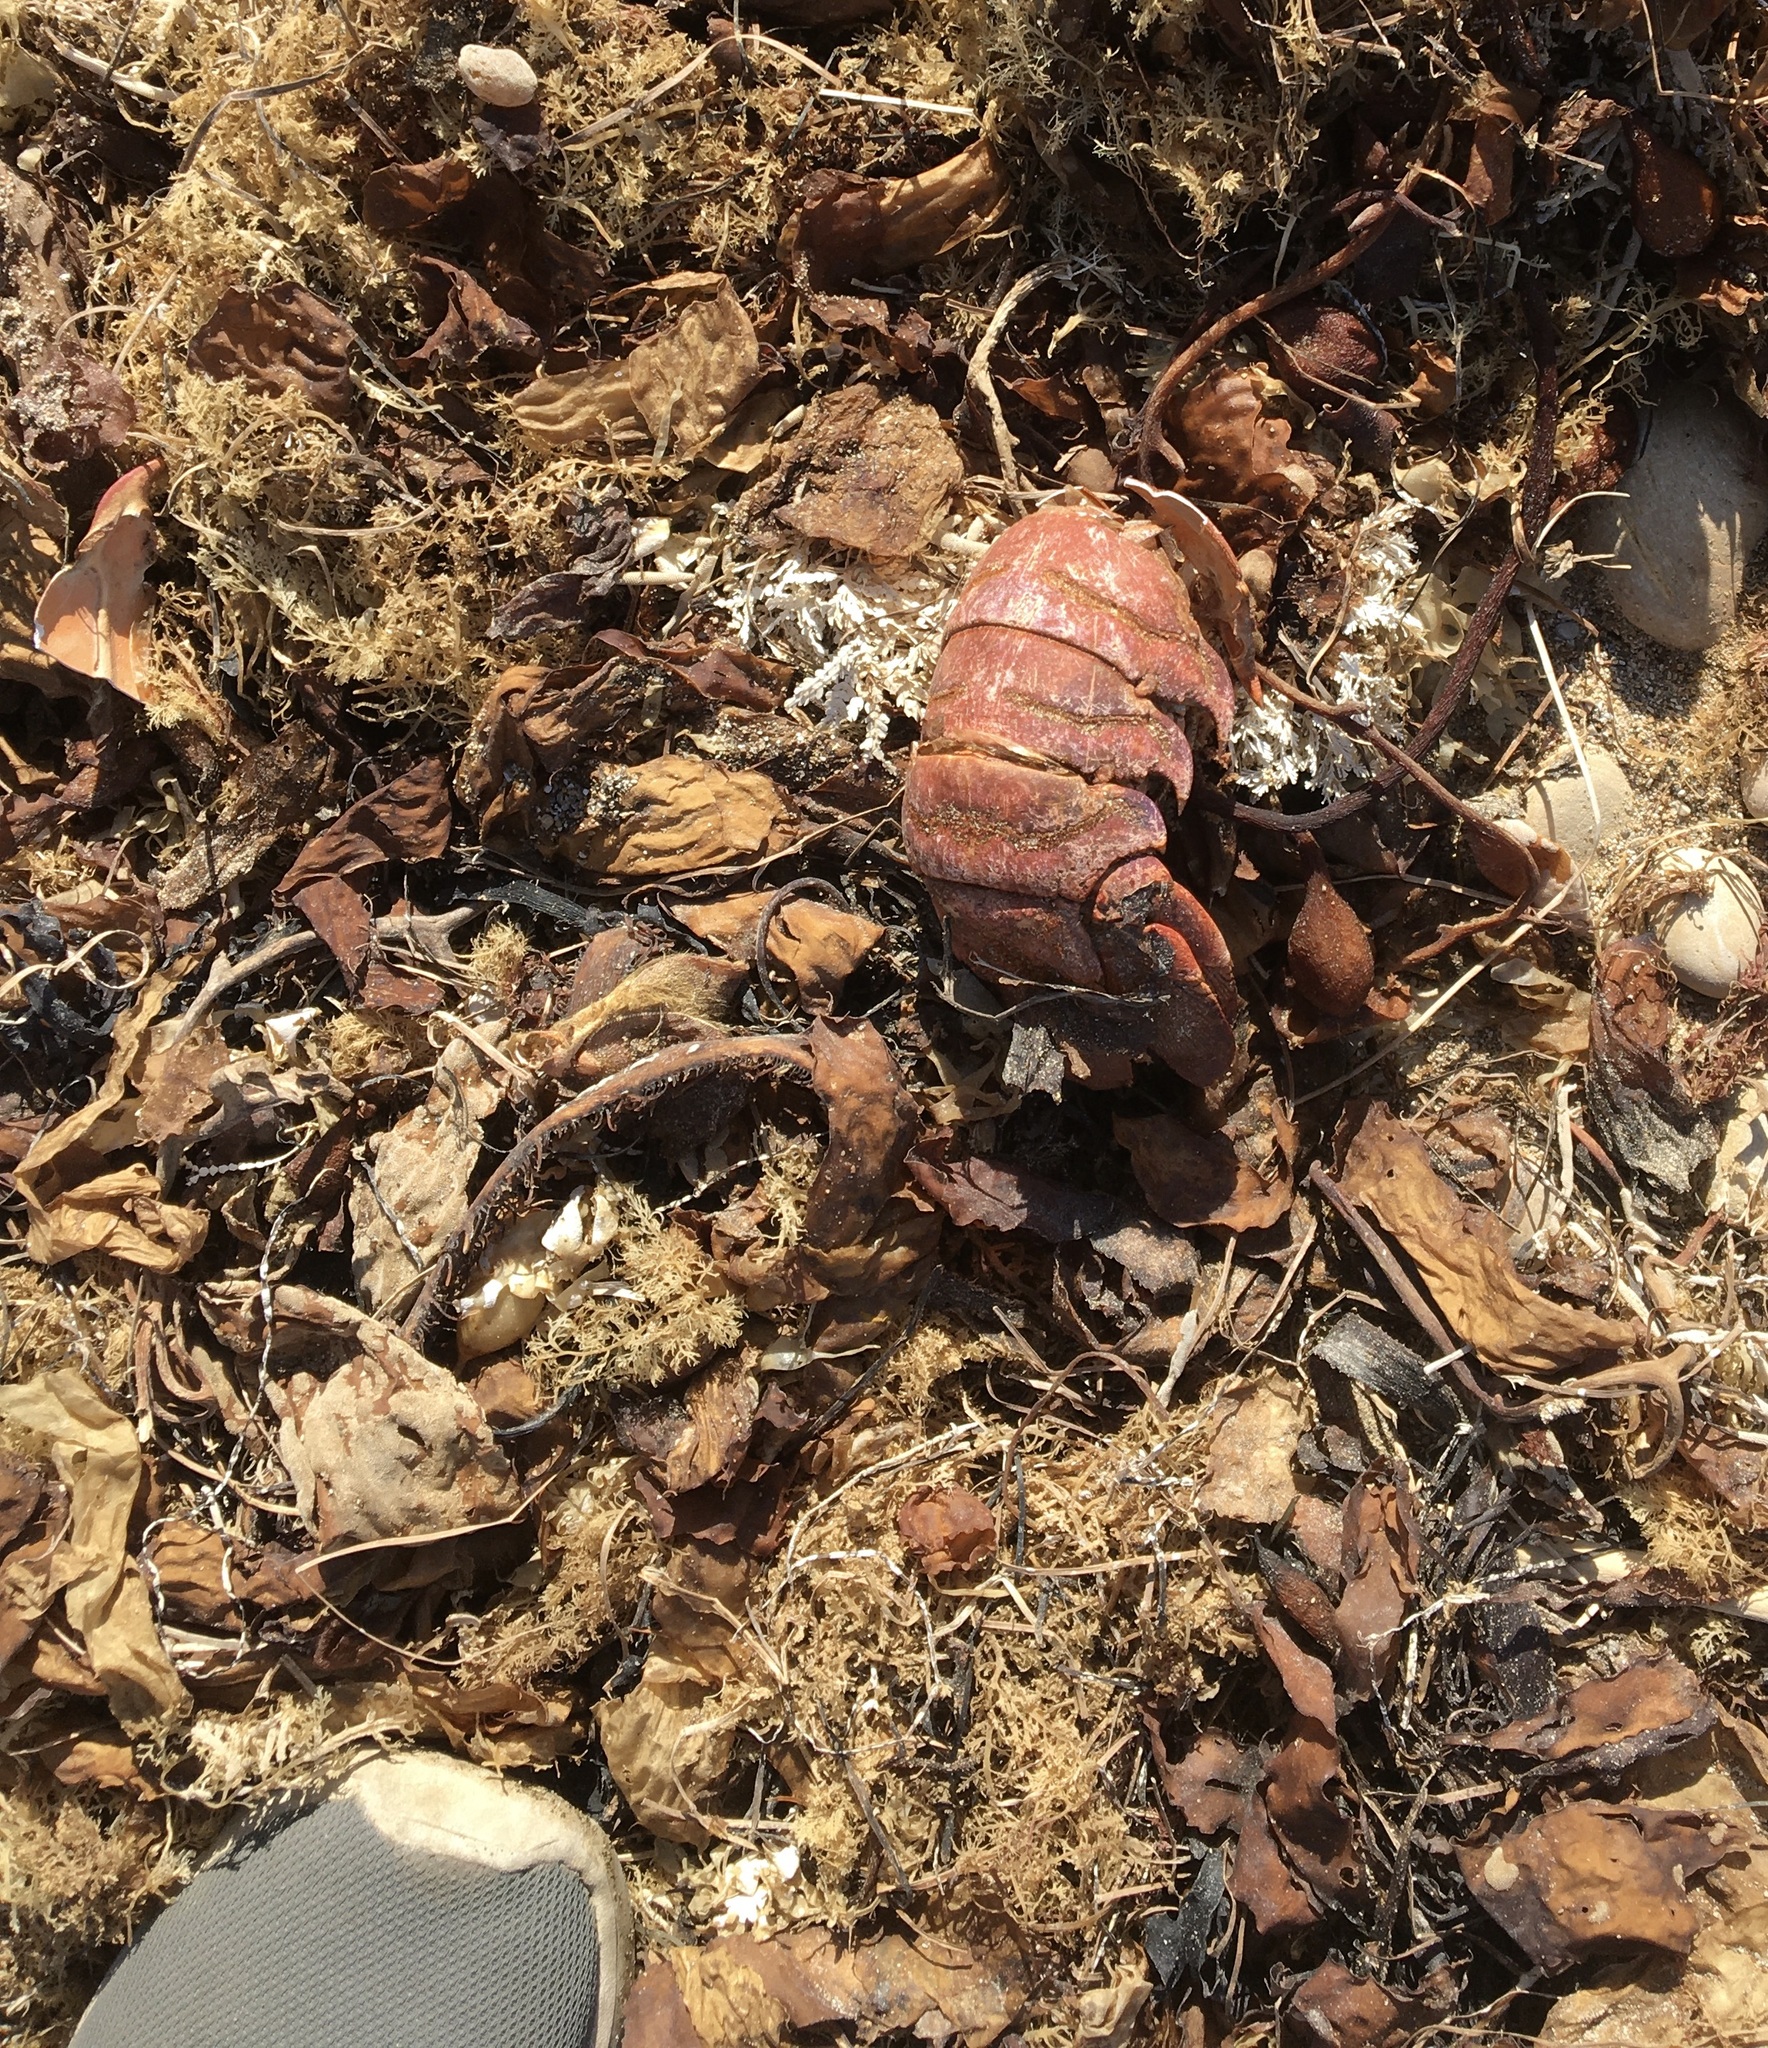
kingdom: Animalia
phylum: Arthropoda
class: Malacostraca
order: Decapoda
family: Palinuridae
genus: Panulirus
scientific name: Panulirus interruptus
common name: California spiny lobster
